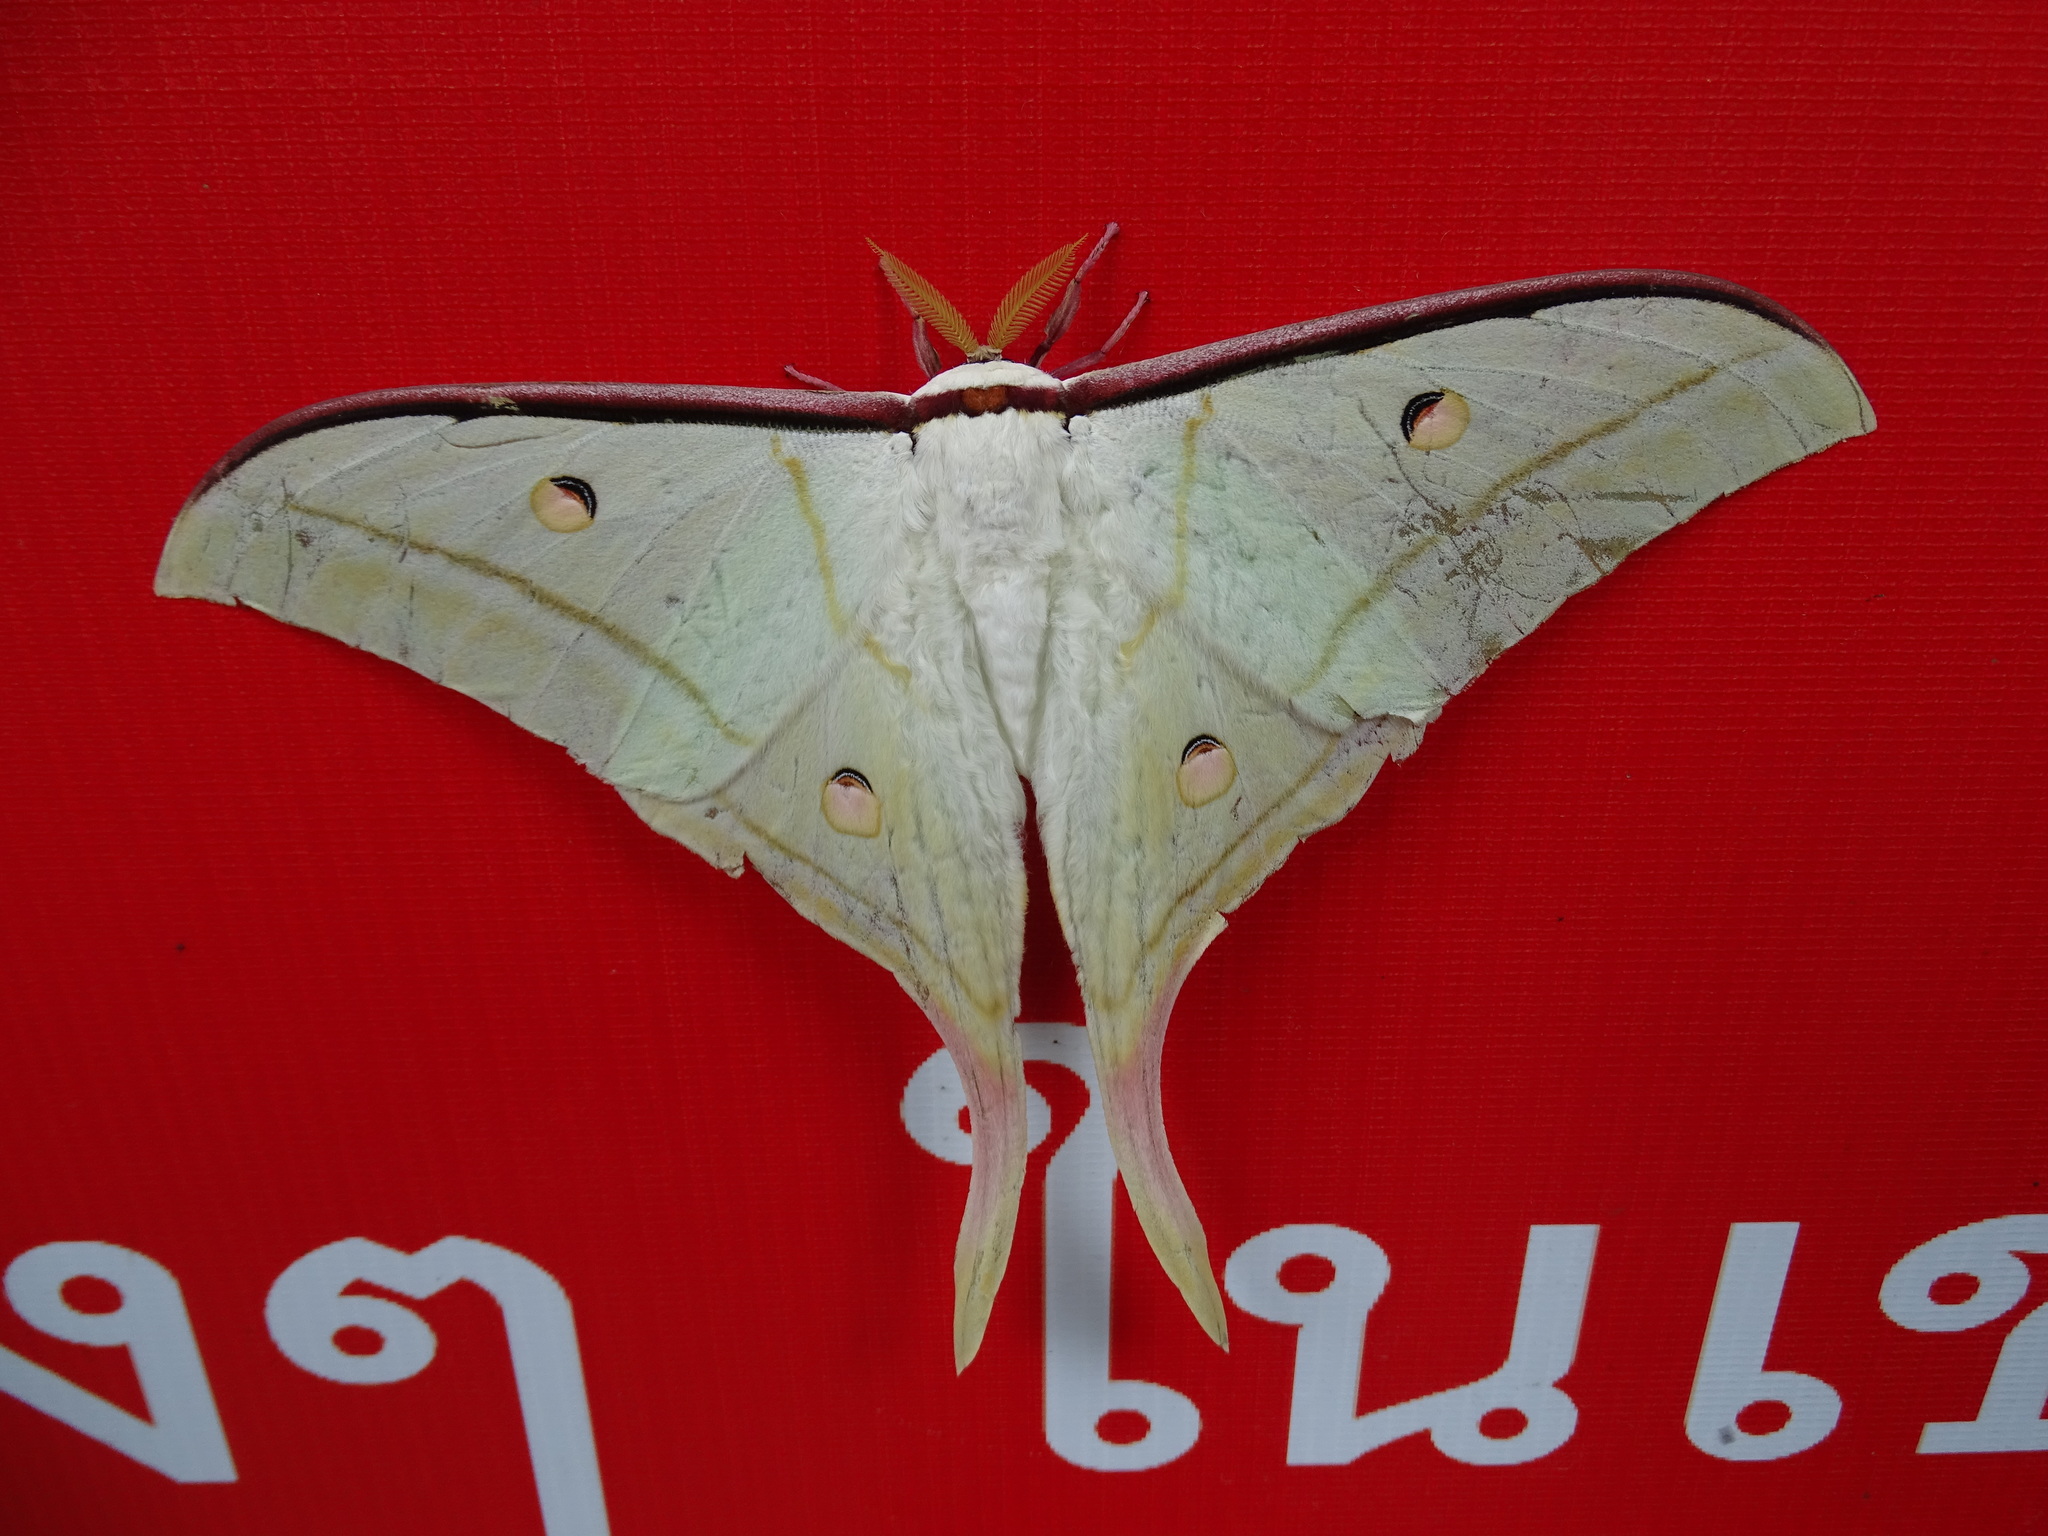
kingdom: Animalia
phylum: Arthropoda
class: Insecta
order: Lepidoptera
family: Saturniidae
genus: Actias
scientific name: Actias selene
